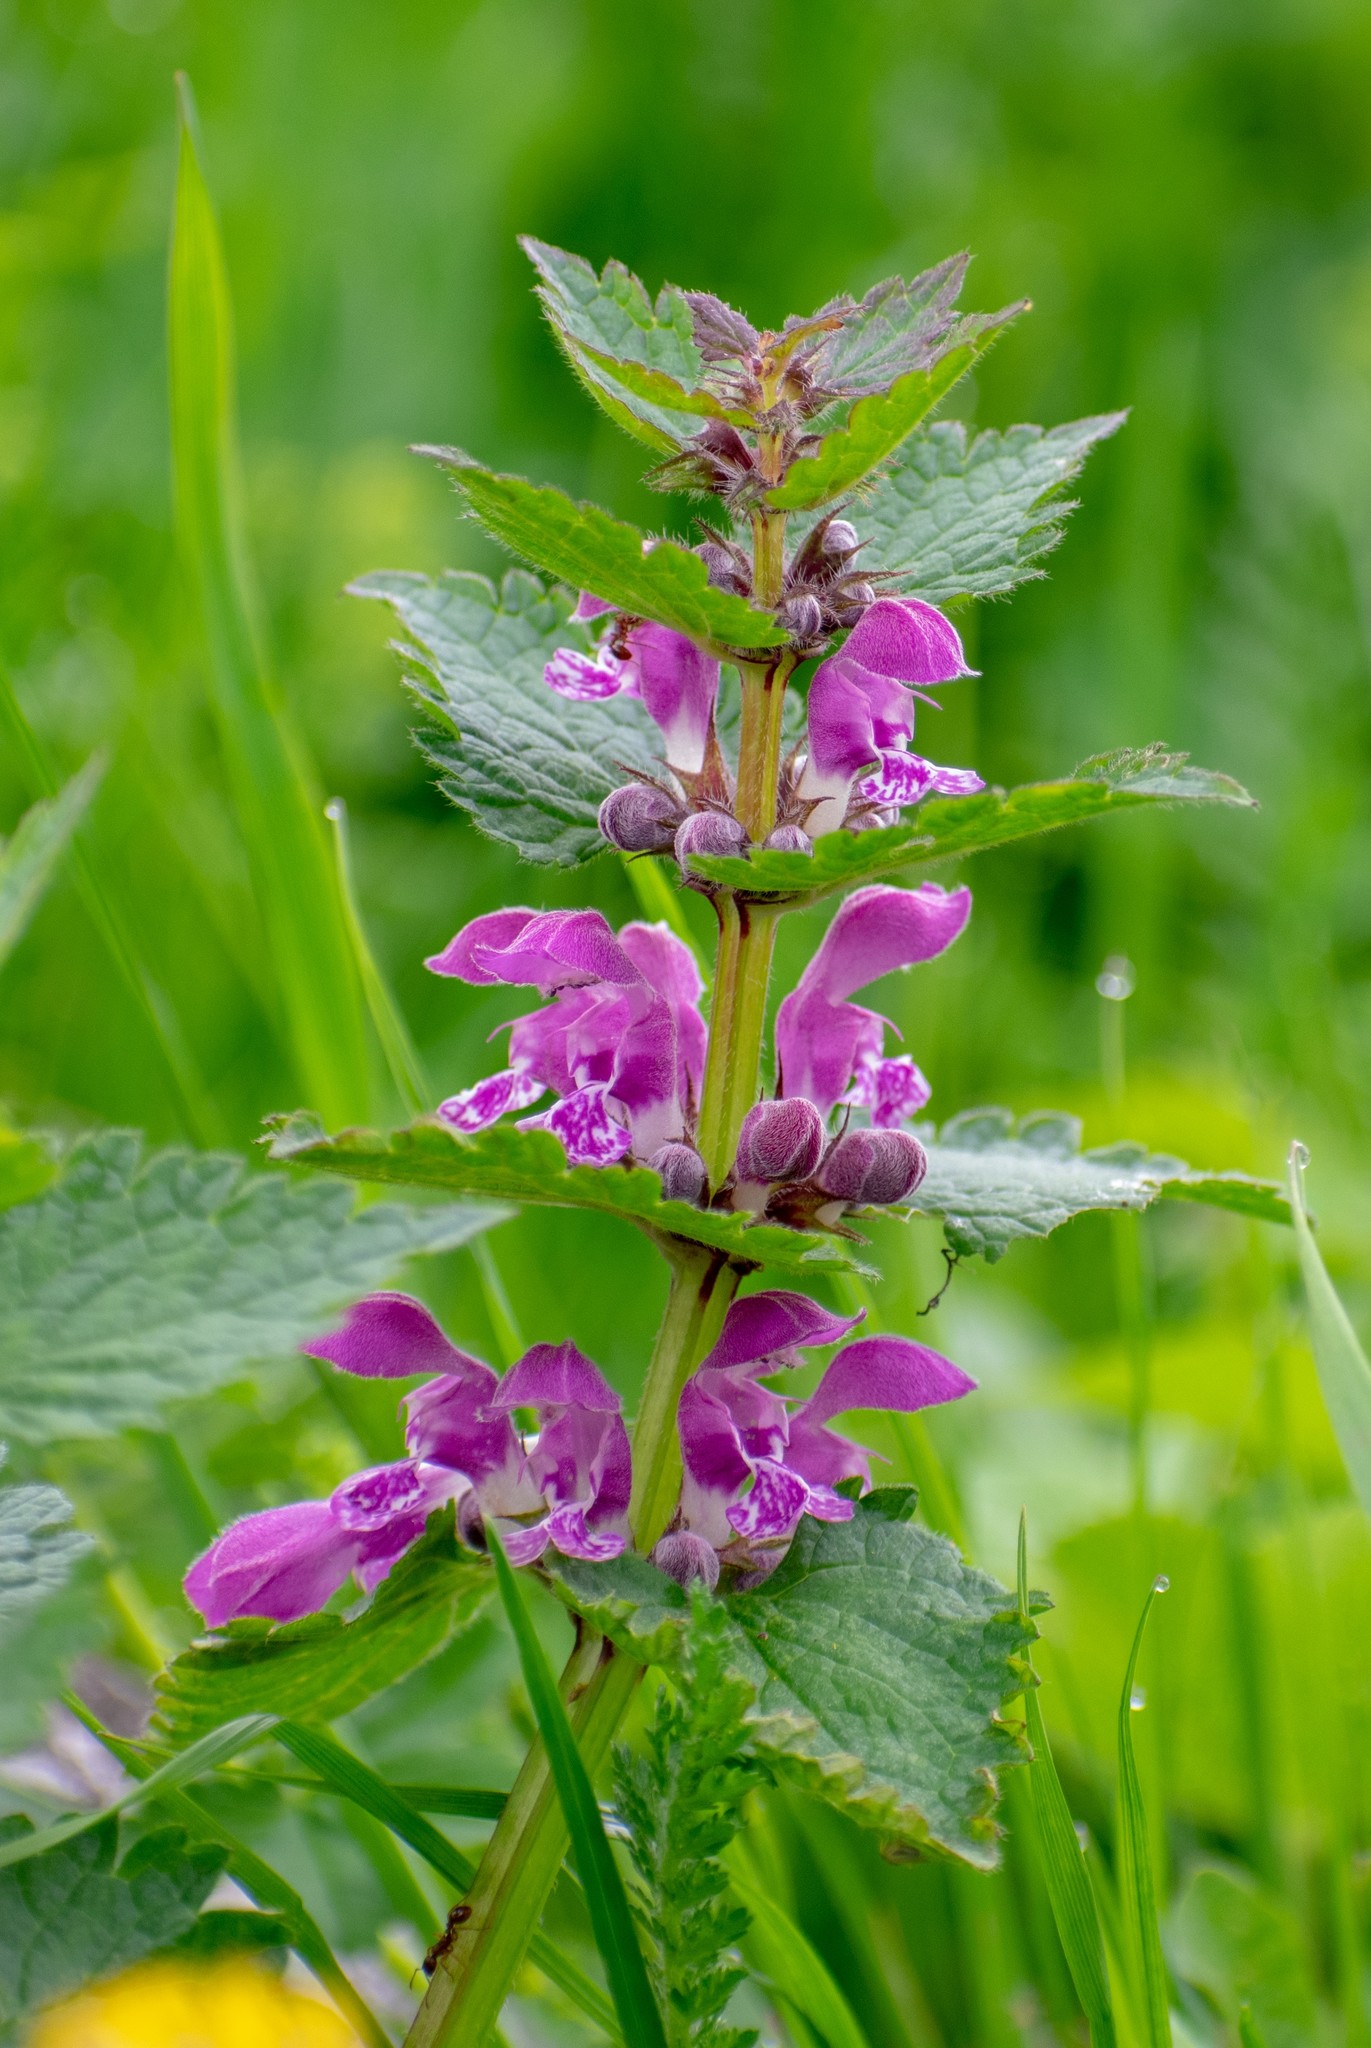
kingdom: Plantae
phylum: Tracheophyta
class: Magnoliopsida
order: Lamiales
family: Lamiaceae
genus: Lamium
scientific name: Lamium maculatum
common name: Spotted dead-nettle
